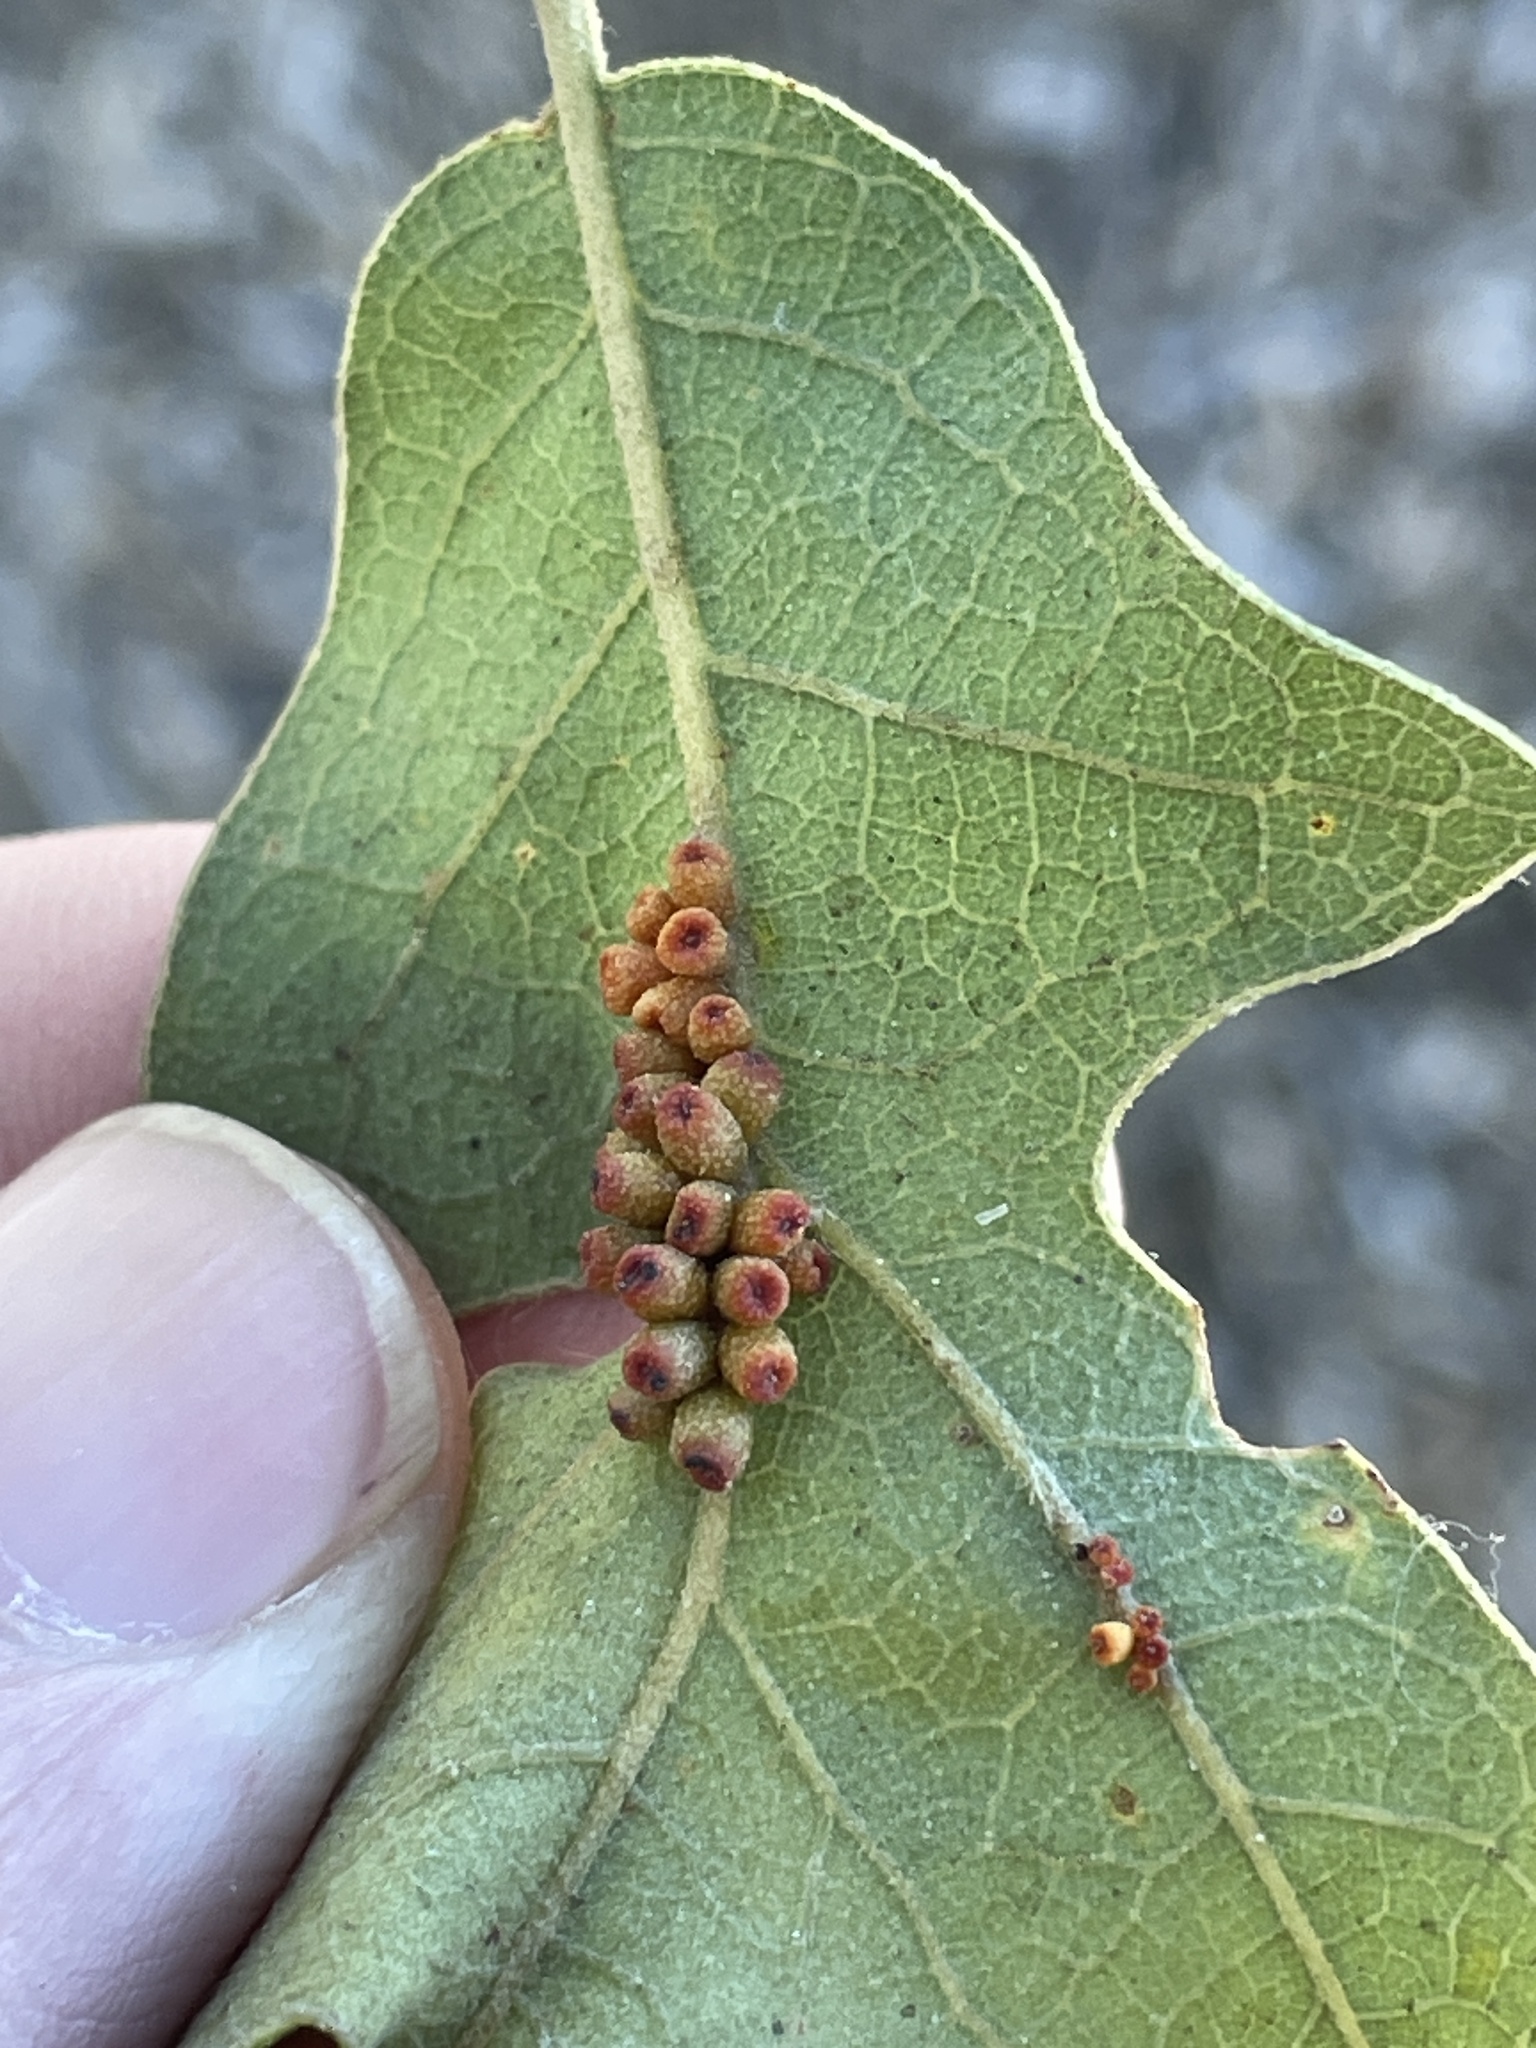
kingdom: Animalia
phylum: Arthropoda
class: Insecta
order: Hymenoptera
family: Cynipidae
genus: Andricus
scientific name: Andricus lustrans
